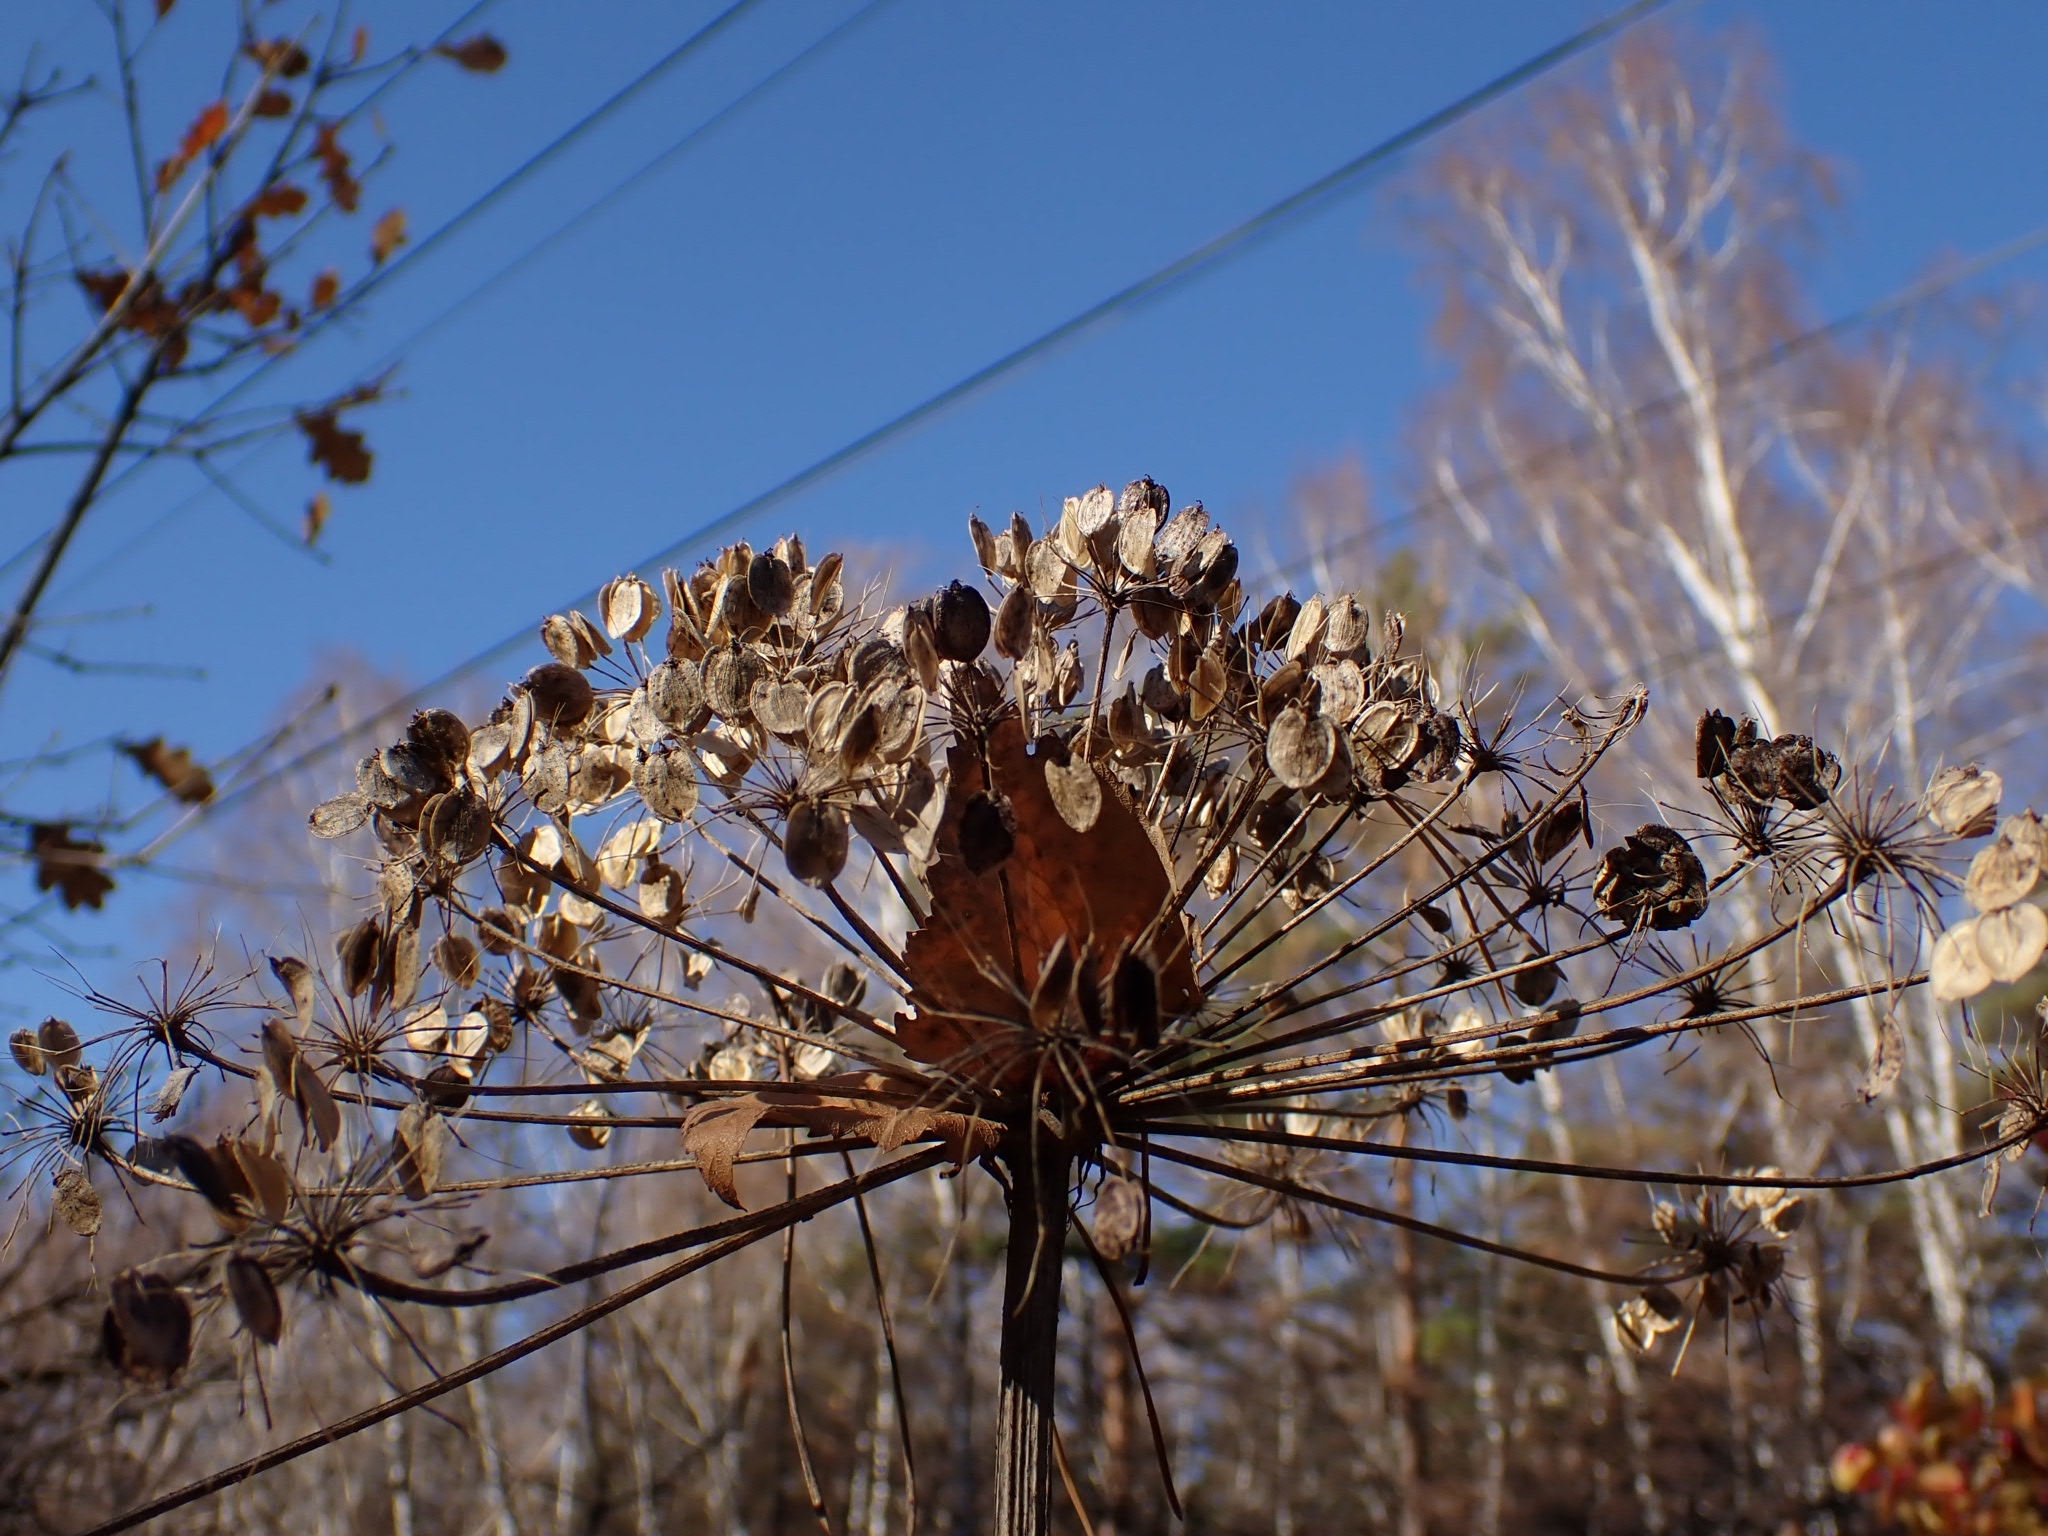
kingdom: Plantae
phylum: Tracheophyta
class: Magnoliopsida
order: Apiales
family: Apiaceae
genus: Heracleum
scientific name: Heracleum dissectum
